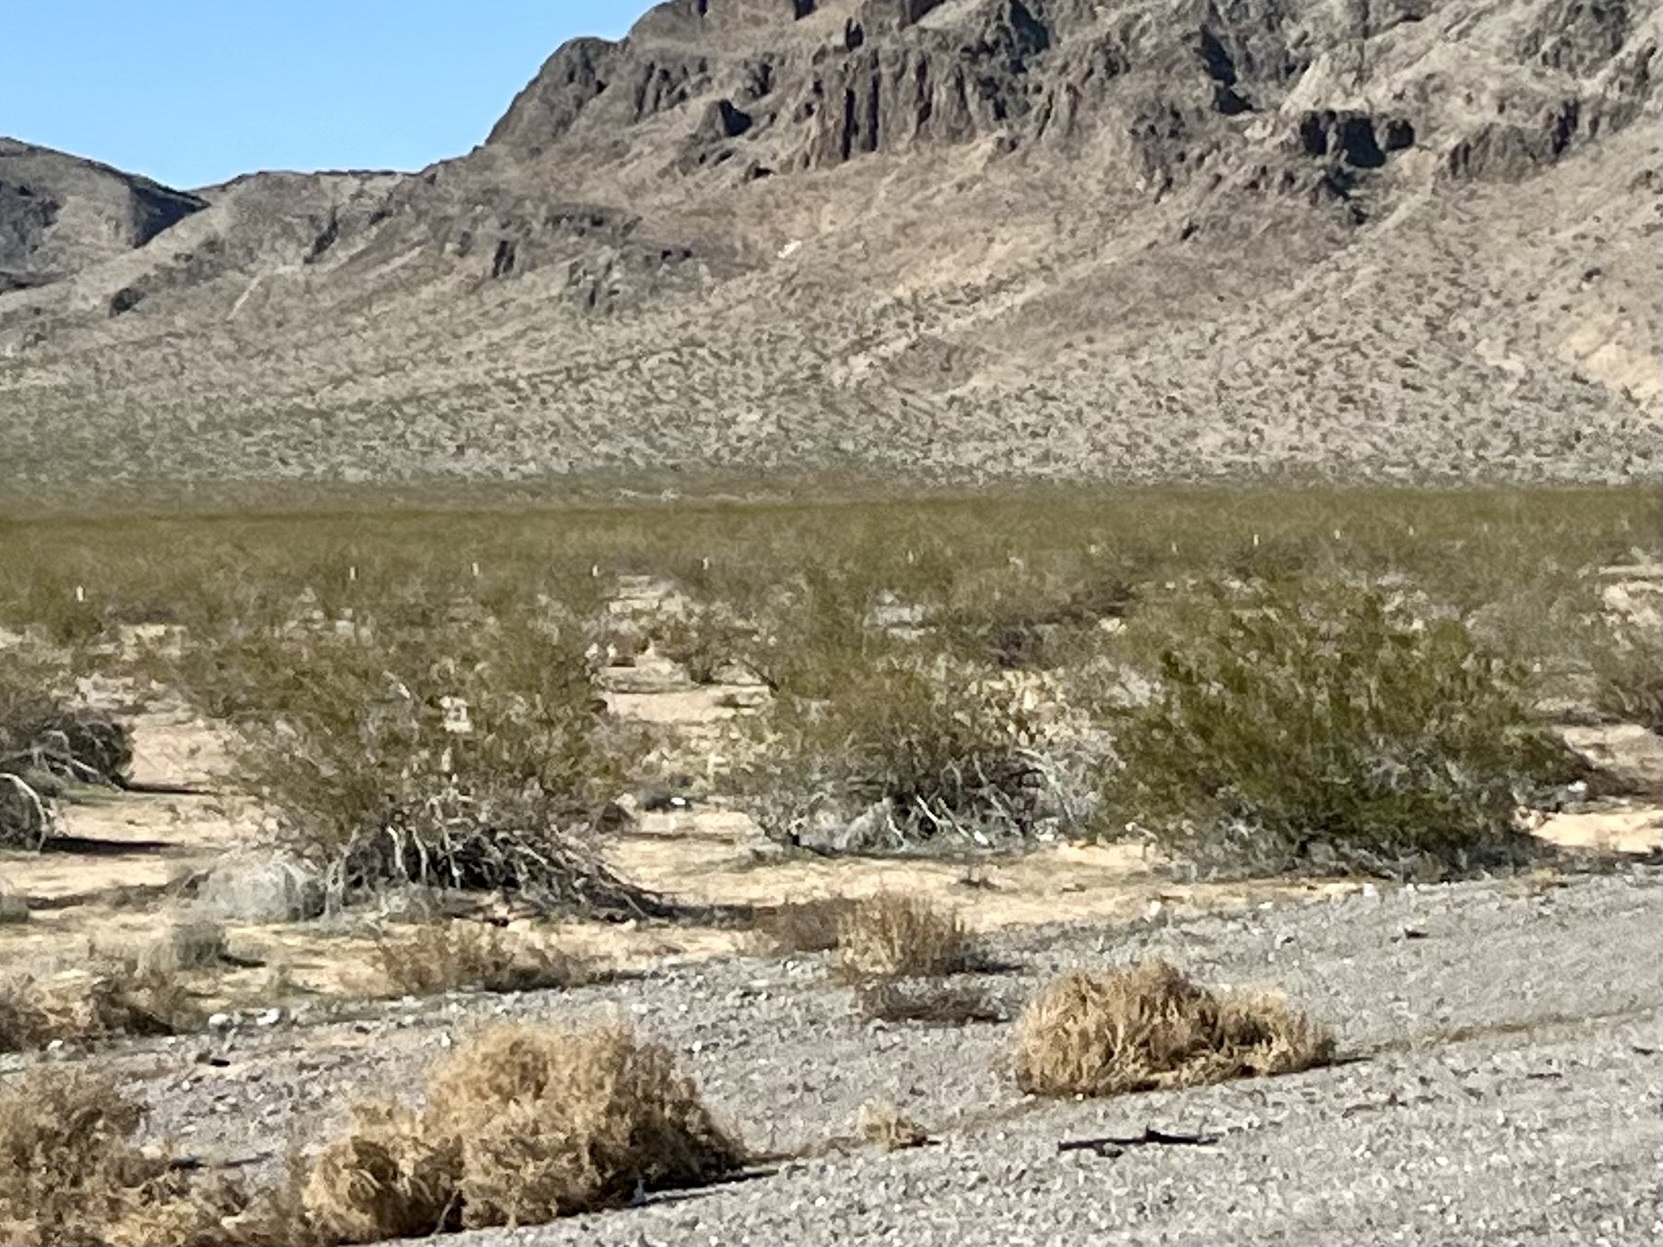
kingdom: Plantae
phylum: Tracheophyta
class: Magnoliopsida
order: Zygophyllales
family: Zygophyllaceae
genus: Larrea
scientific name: Larrea tridentata
